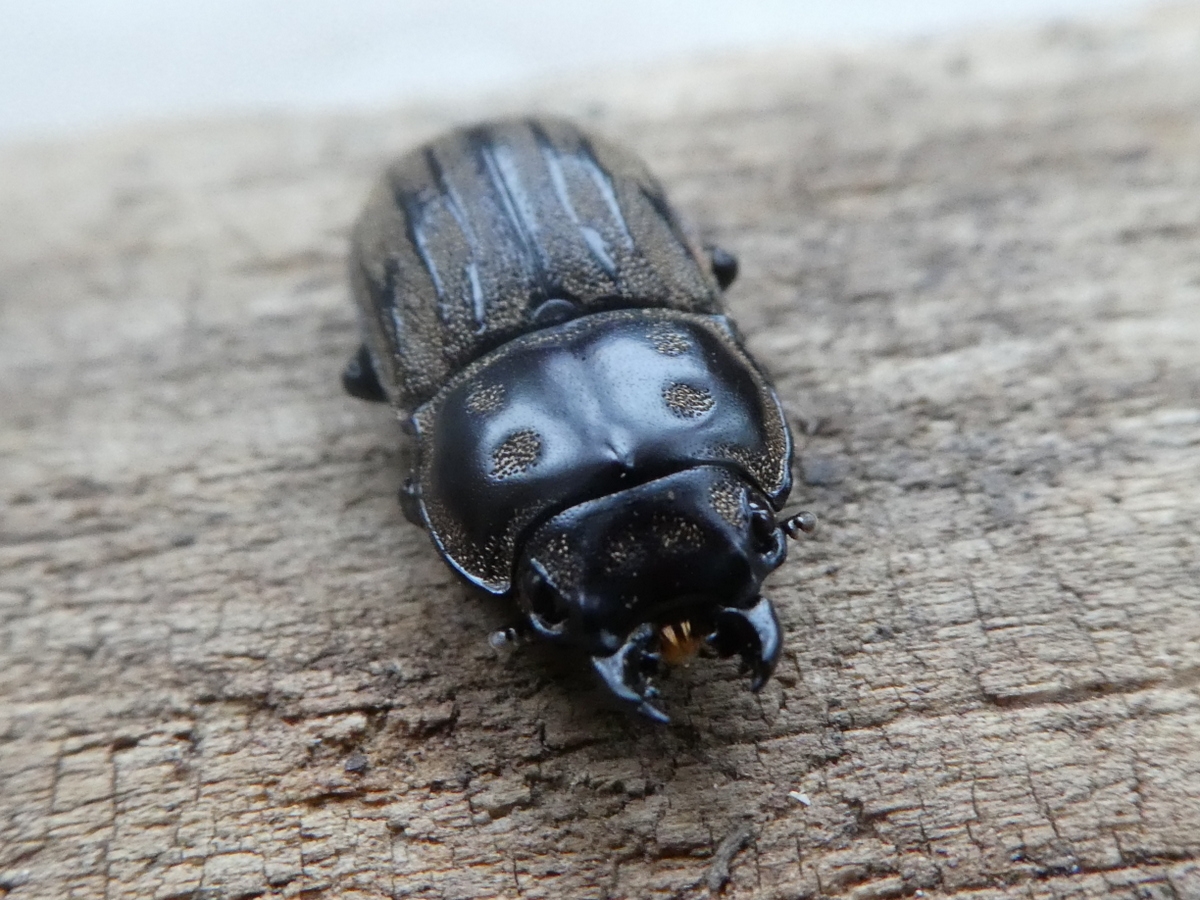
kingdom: Animalia
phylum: Arthropoda
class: Insecta
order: Coleoptera
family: Lucanidae
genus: Paralissotes
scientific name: Paralissotes reticulatus
